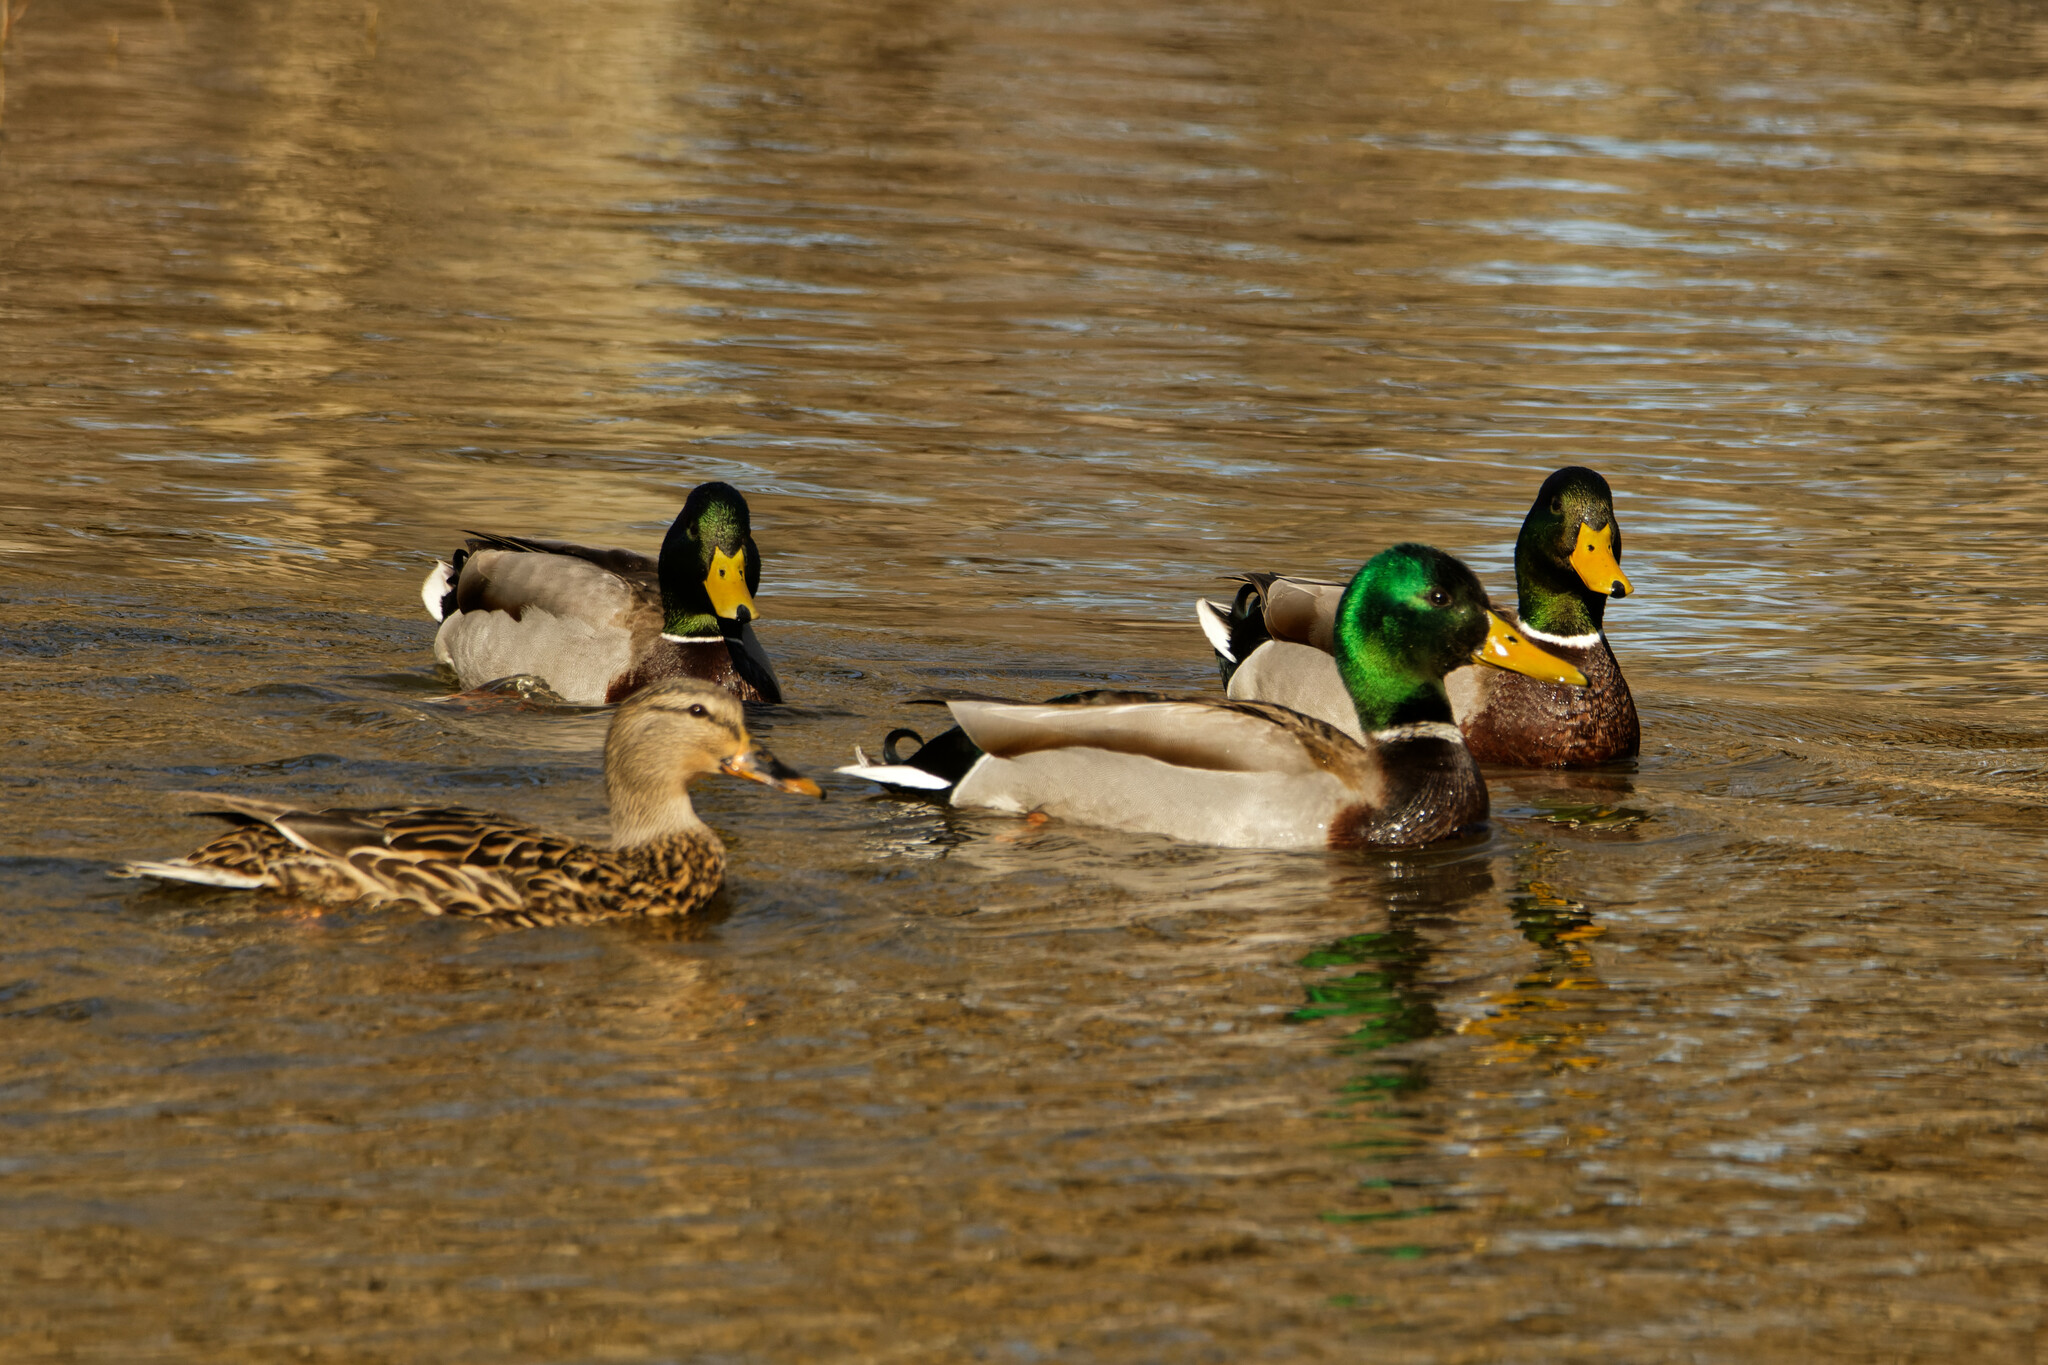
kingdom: Animalia
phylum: Chordata
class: Aves
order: Anseriformes
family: Anatidae
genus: Anas
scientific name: Anas platyrhynchos
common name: Mallard
